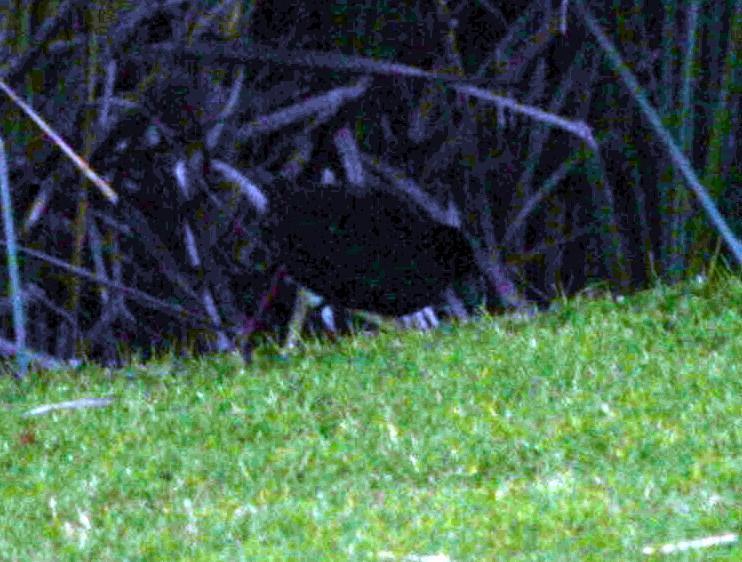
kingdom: Animalia
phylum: Chordata
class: Aves
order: Gruiformes
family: Rallidae
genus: Amaurornis
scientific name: Amaurornis flavirostra
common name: Black crake
